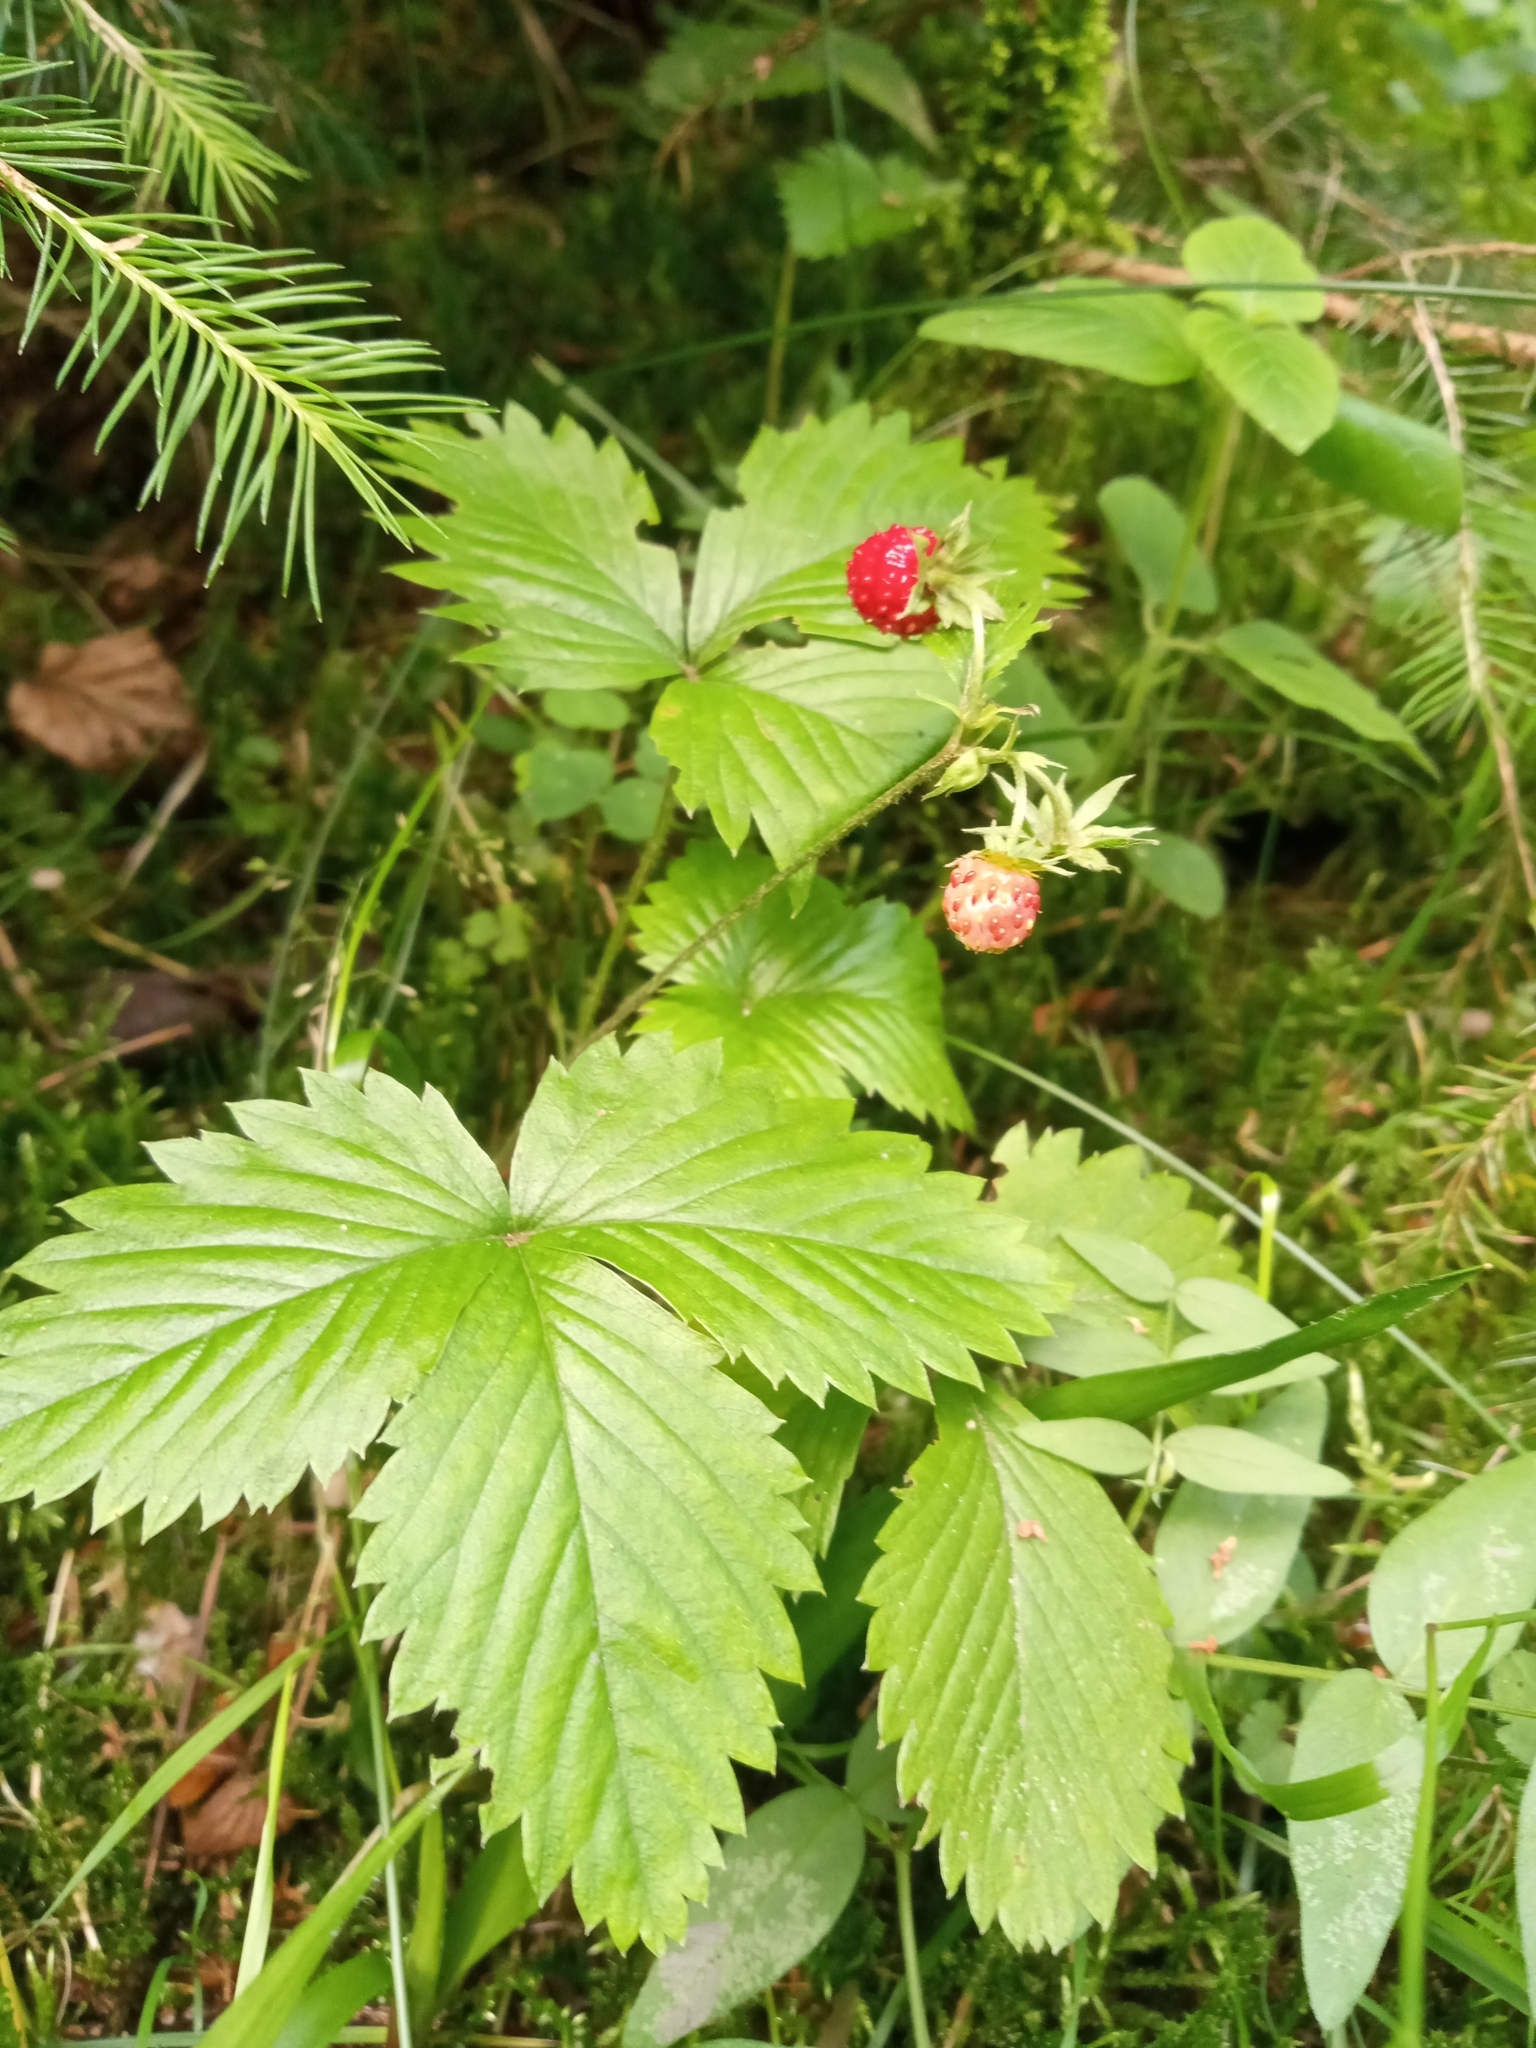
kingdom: Plantae
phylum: Tracheophyta
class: Magnoliopsida
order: Rosales
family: Rosaceae
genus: Fragaria
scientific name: Fragaria vesca
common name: Wild strawberry
